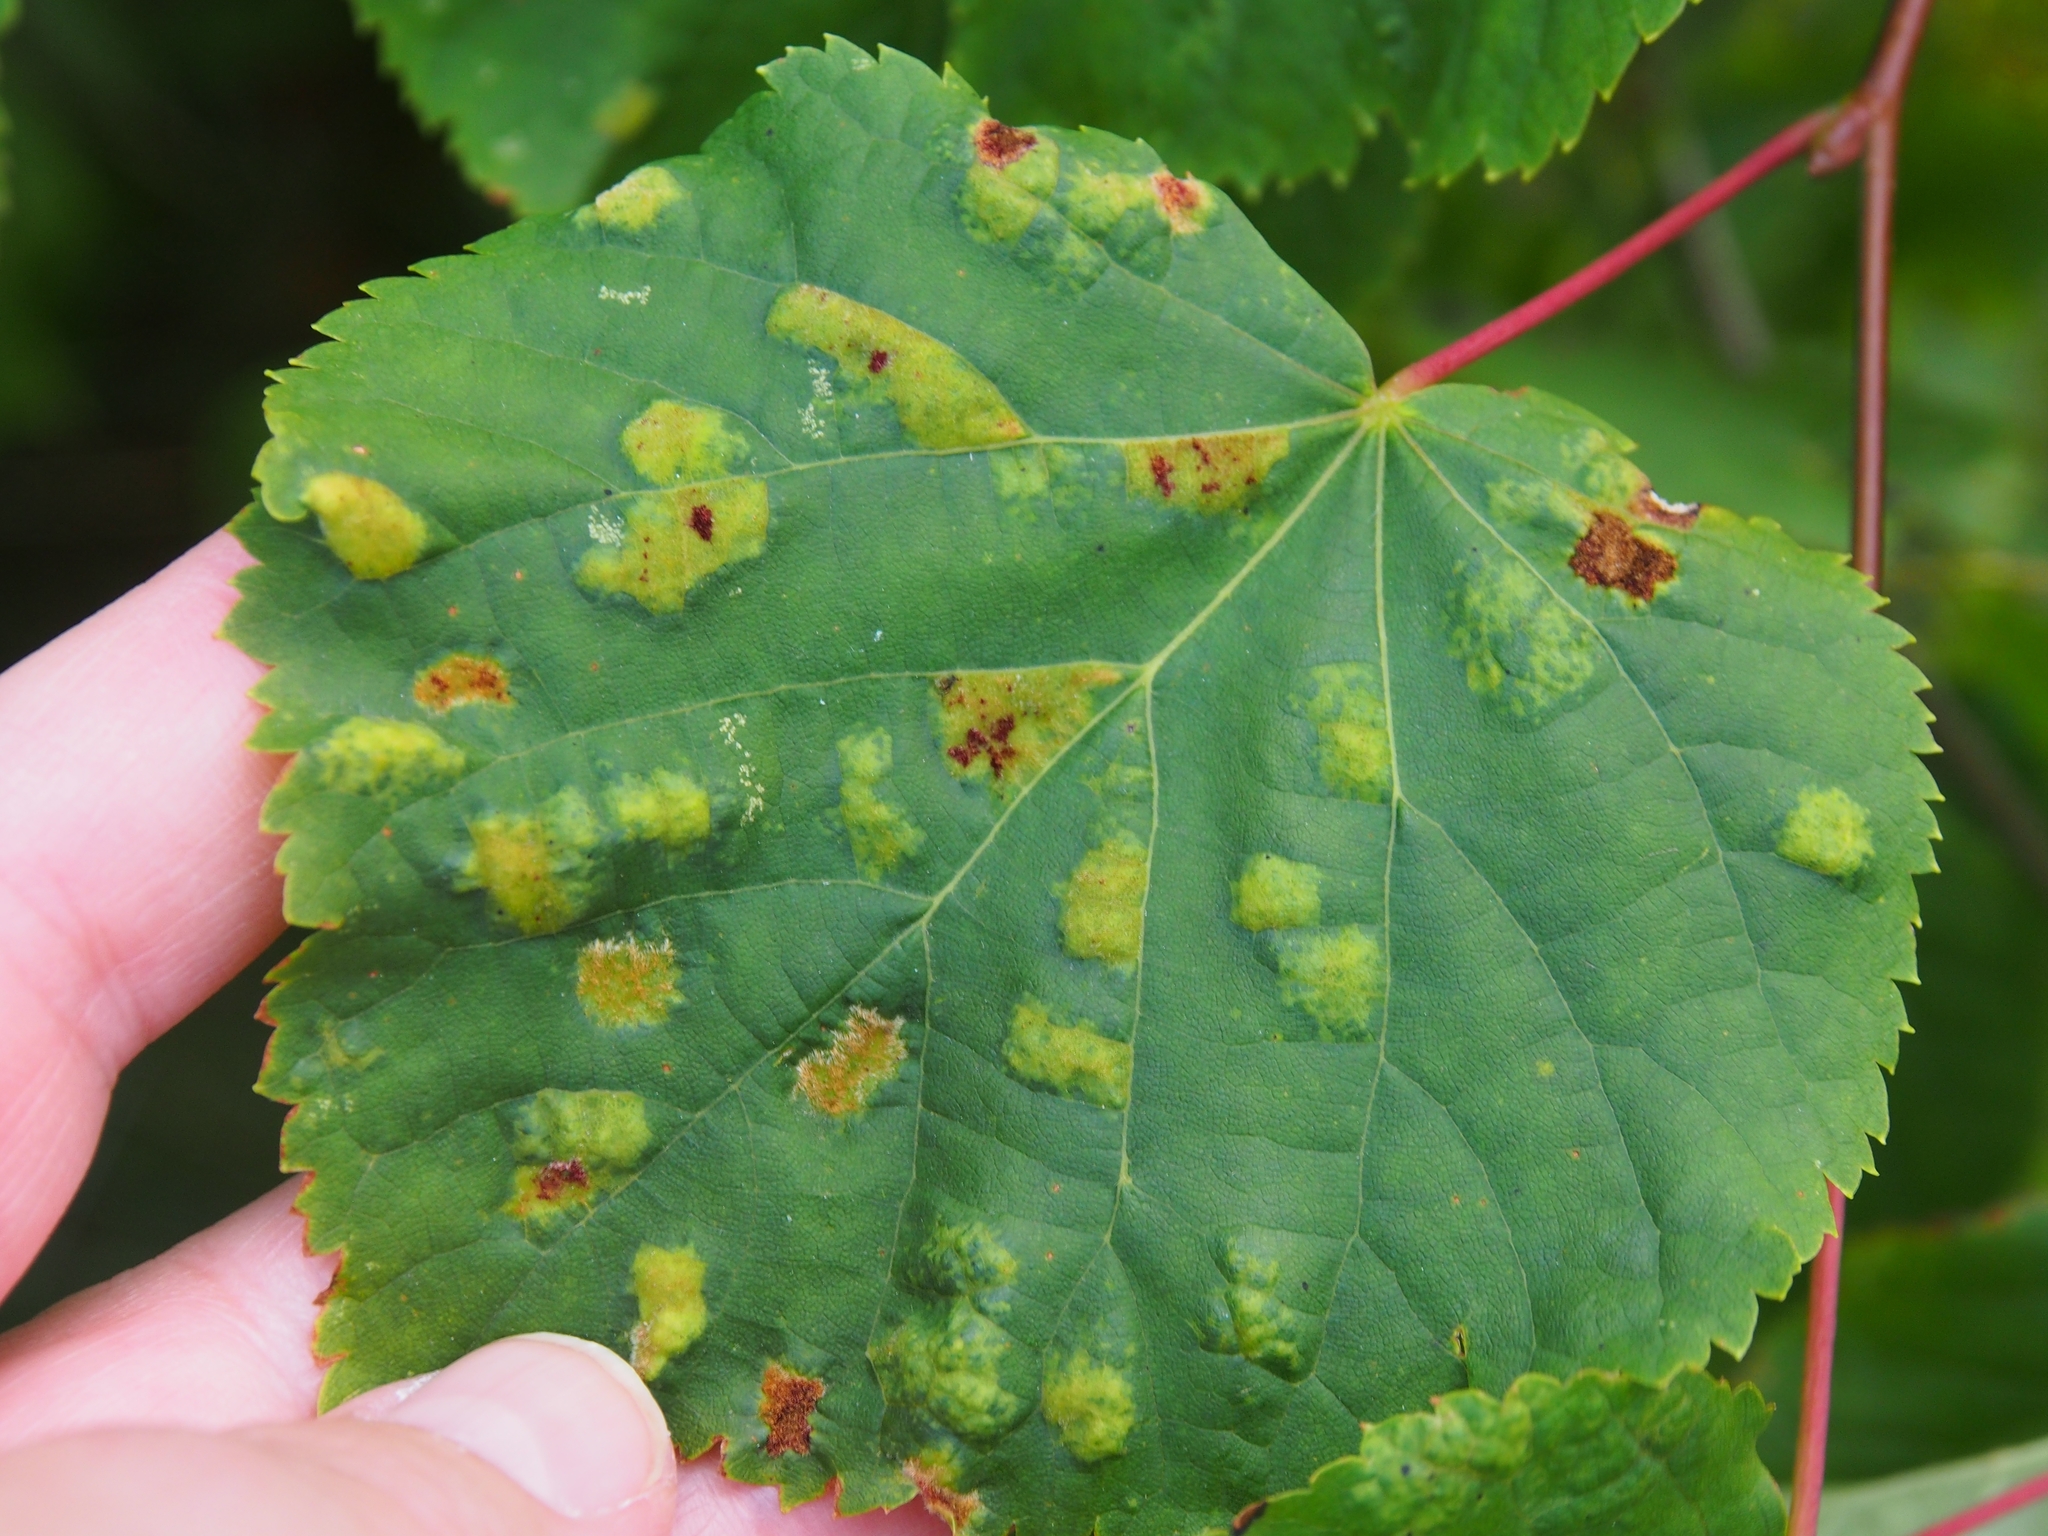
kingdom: Animalia
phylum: Arthropoda
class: Arachnida
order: Trombidiformes
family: Eriophyidae
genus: Eriophyes
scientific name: Eriophyes leiosoma
